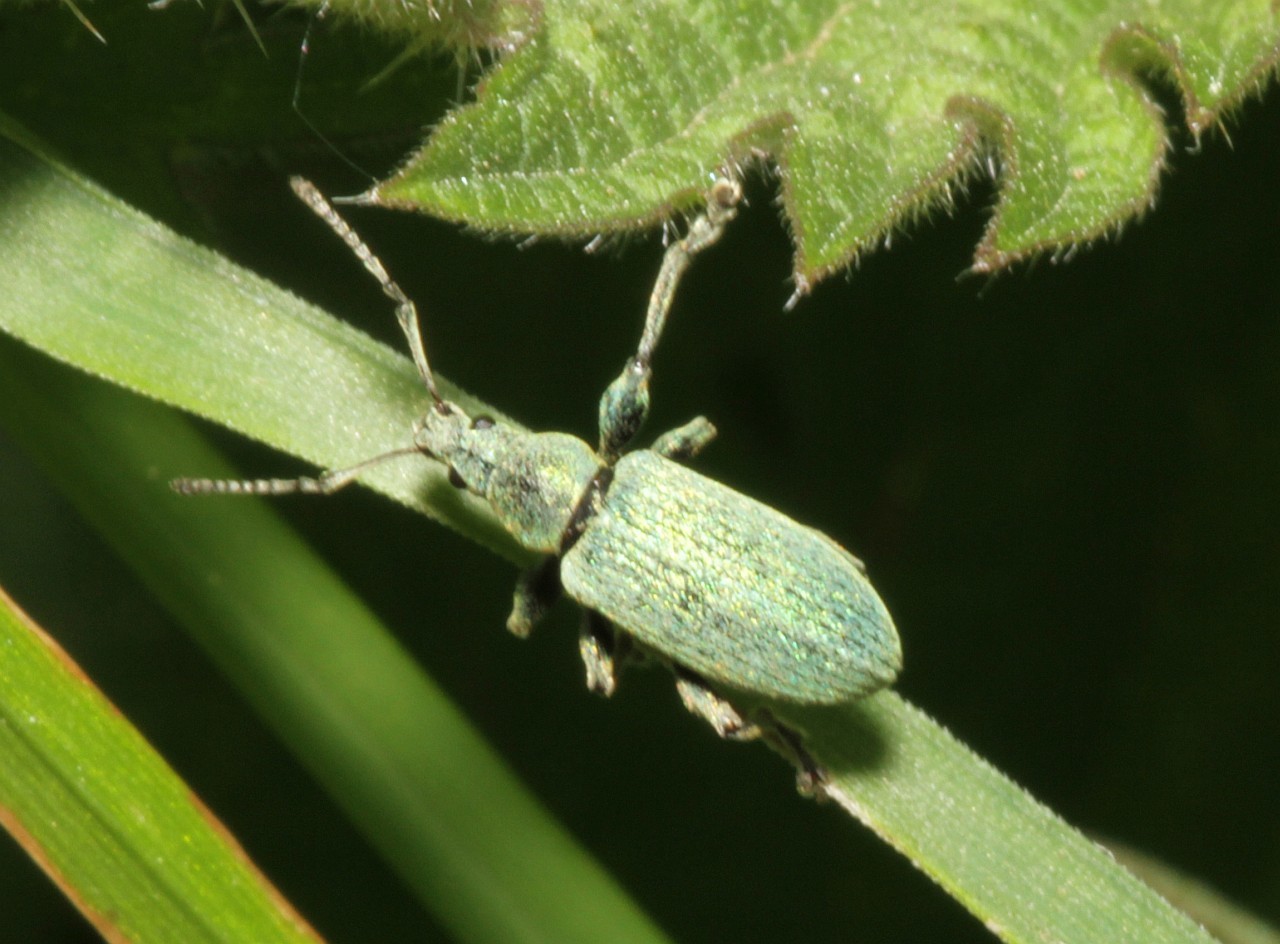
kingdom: Animalia
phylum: Arthropoda
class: Insecta
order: Coleoptera
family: Curculionidae
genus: Phyllobius
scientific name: Phyllobius pomaceus
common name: Green nettle weevil
